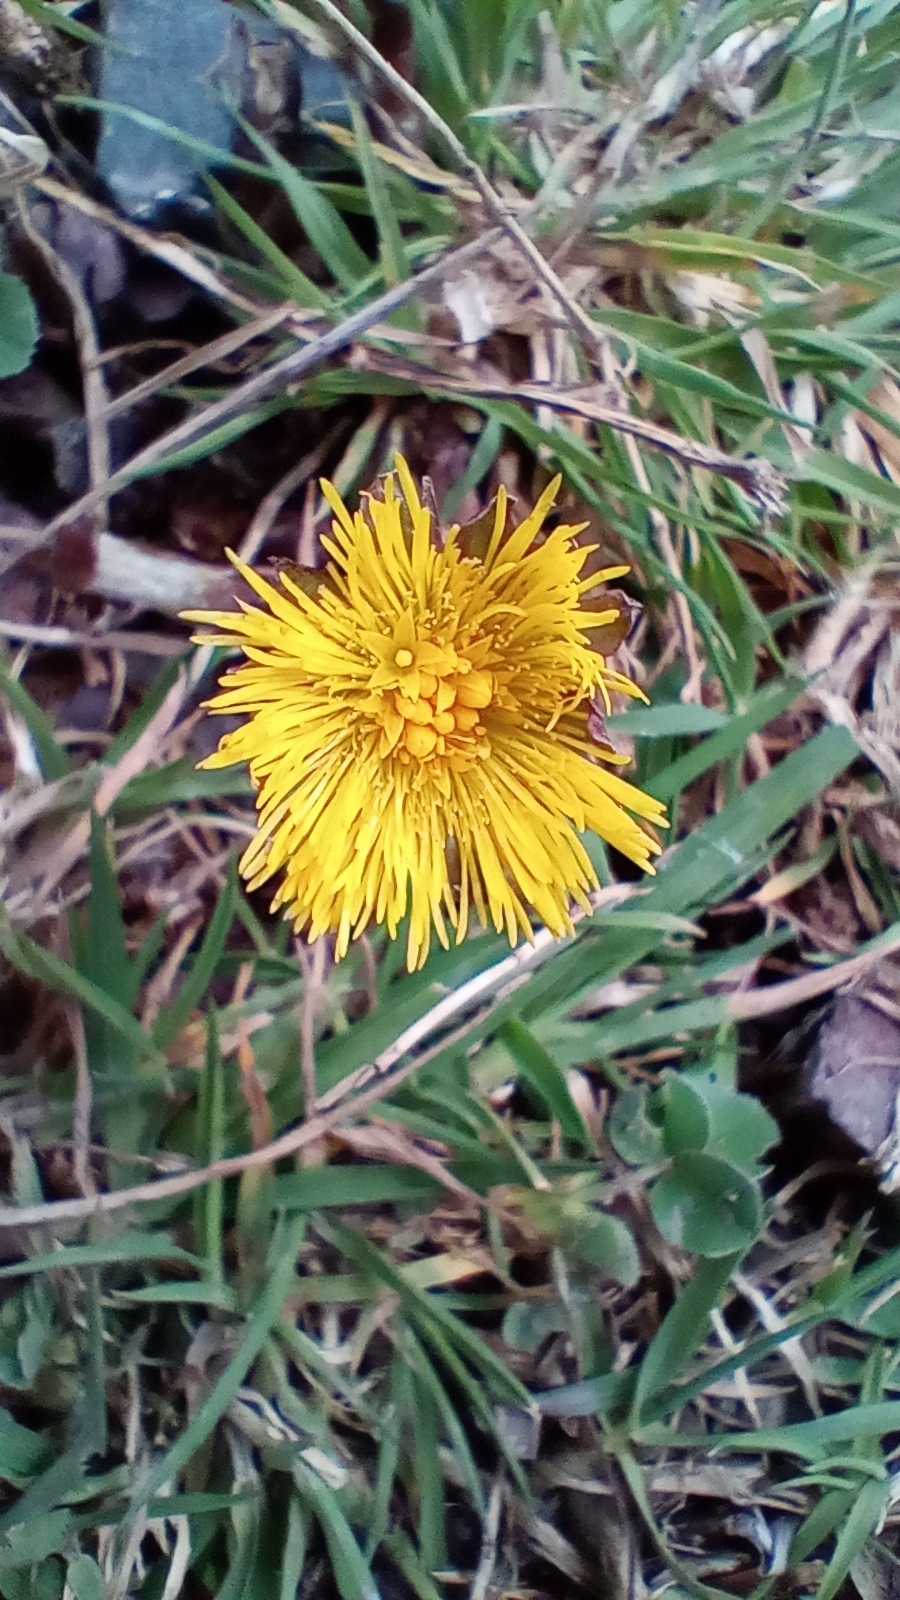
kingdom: Plantae
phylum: Tracheophyta
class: Magnoliopsida
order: Asterales
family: Asteraceae
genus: Tussilago
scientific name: Tussilago farfara
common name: Coltsfoot
